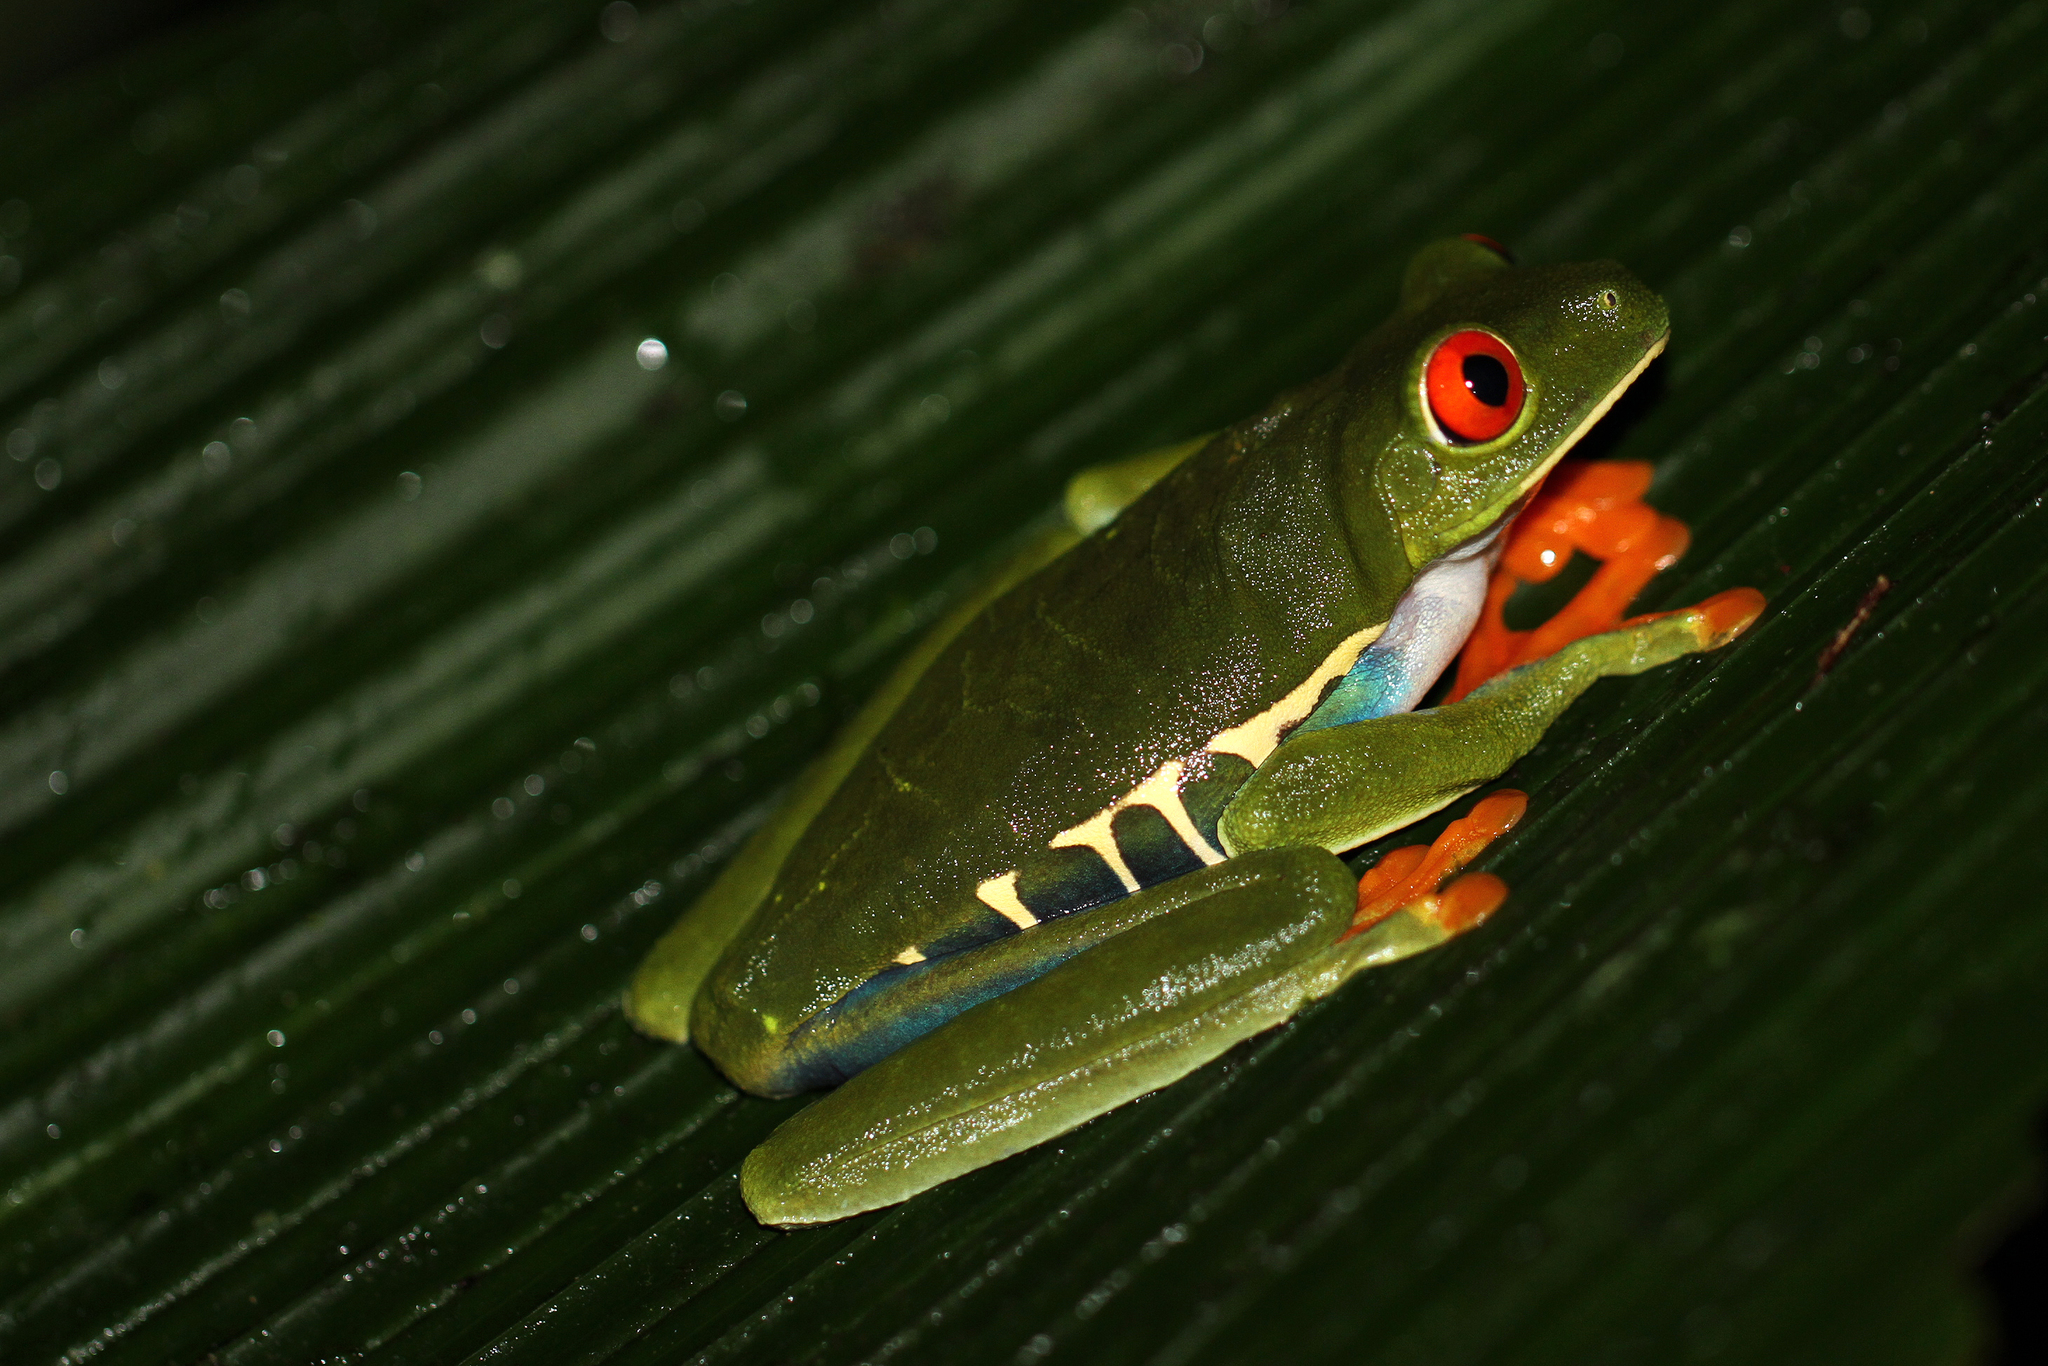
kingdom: Animalia
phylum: Chordata
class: Amphibia
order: Anura
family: Phyllomedusidae
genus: Agalychnis
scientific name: Agalychnis callidryas
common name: Red-eyed treefrog
